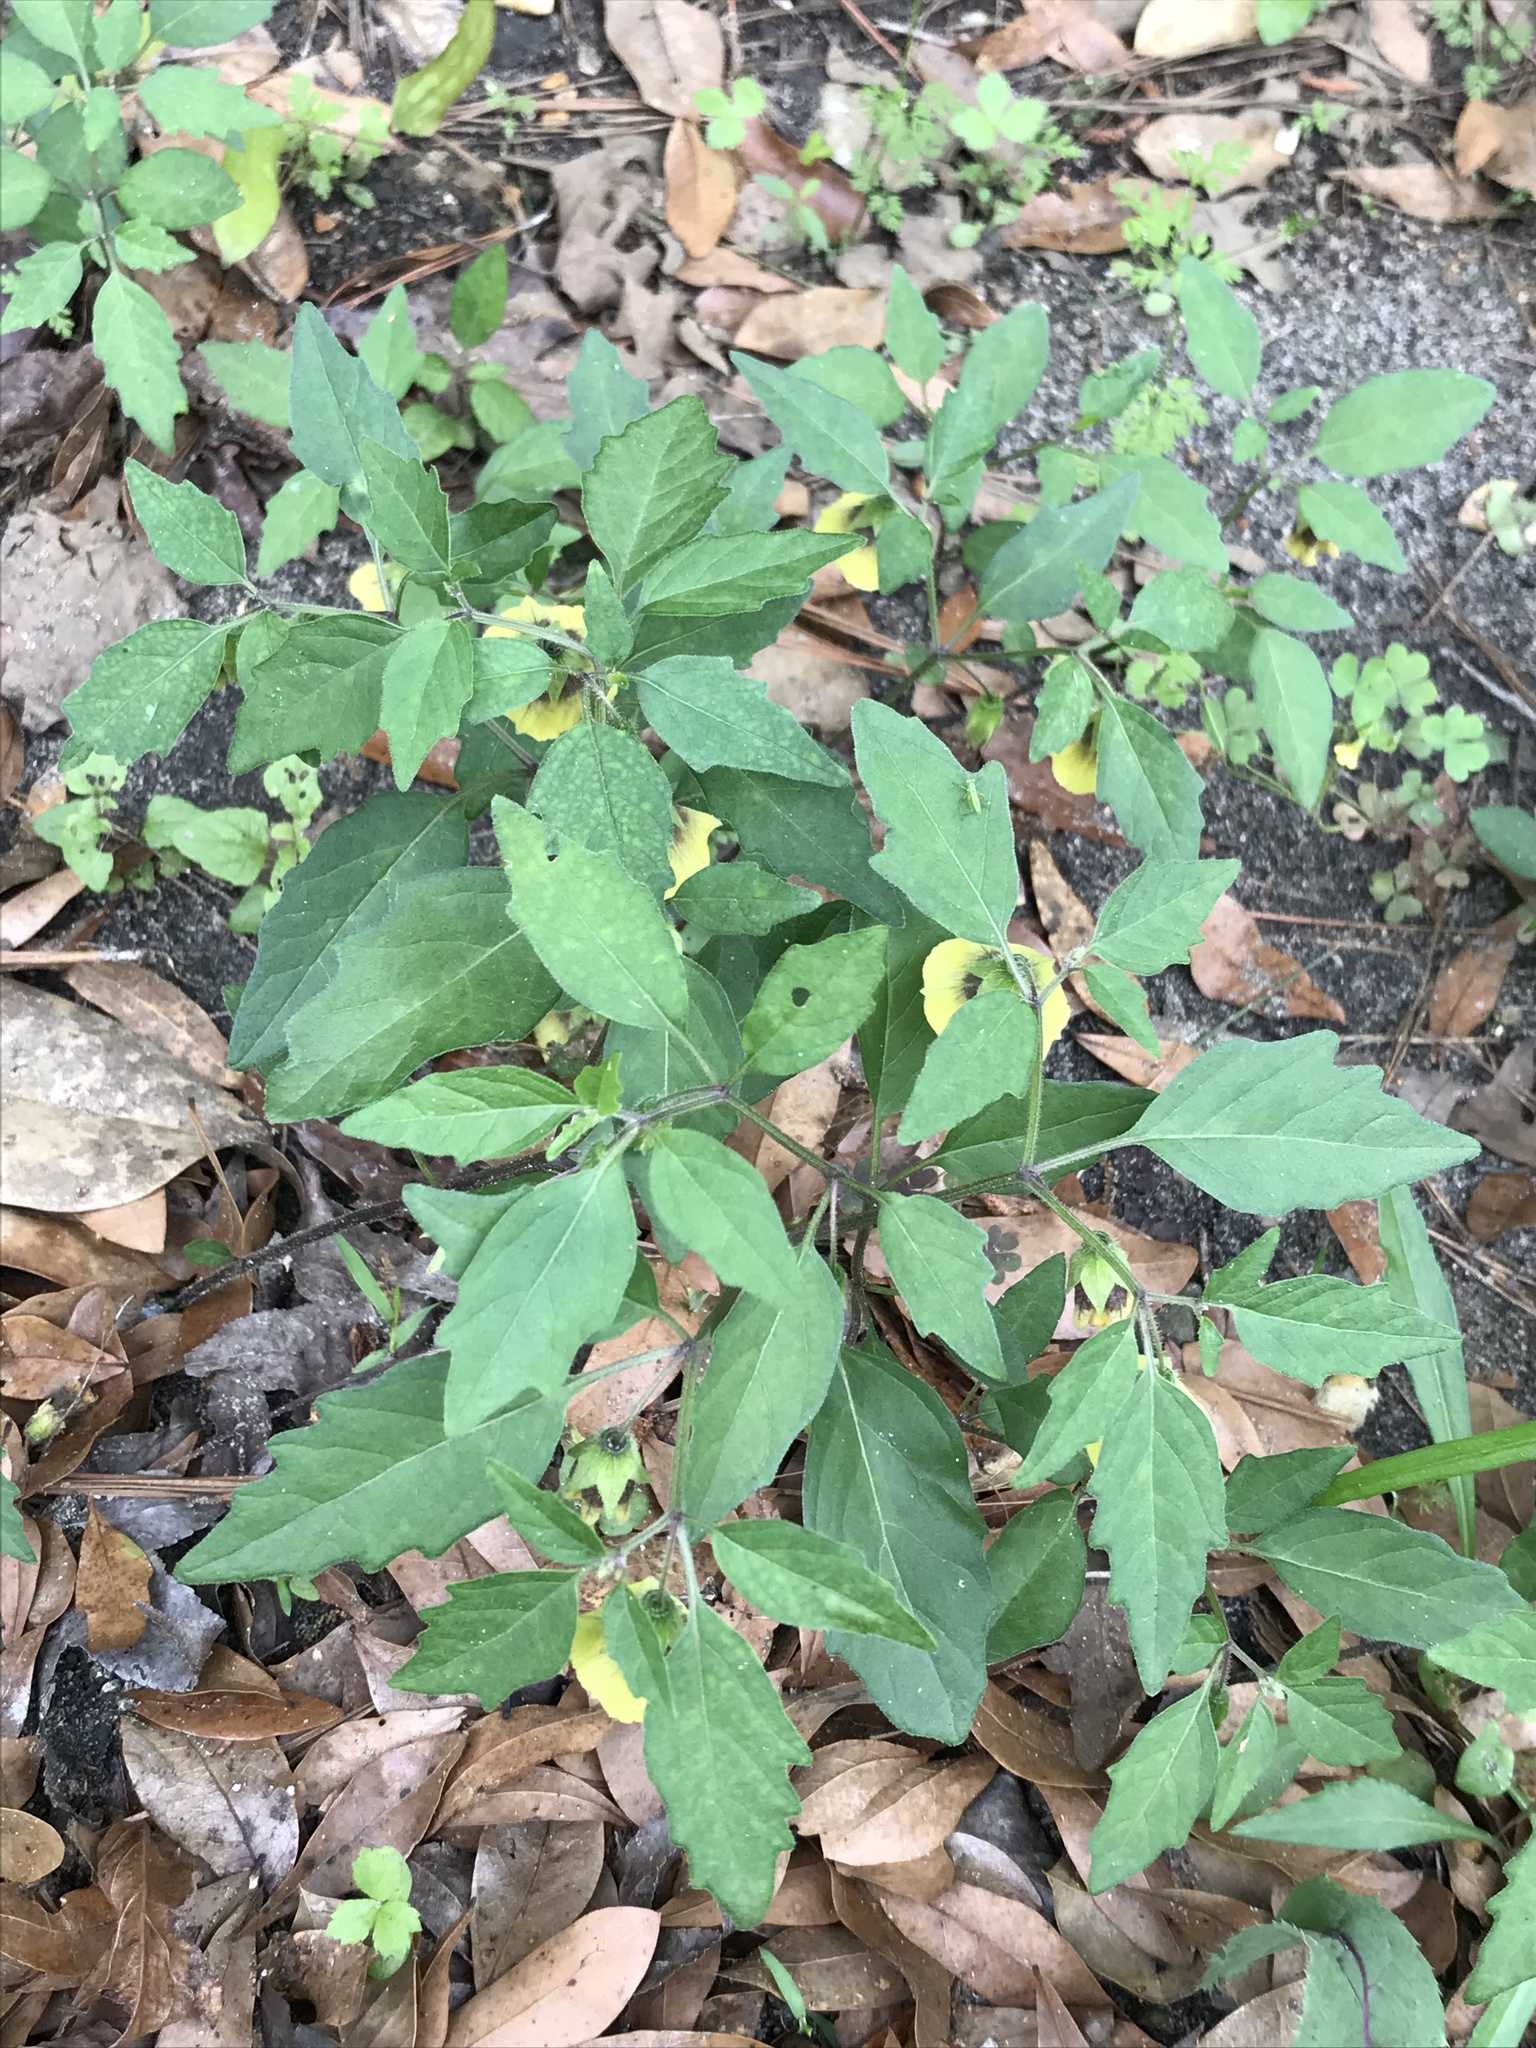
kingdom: Plantae
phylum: Tracheophyta
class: Magnoliopsida
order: Solanales
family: Solanaceae
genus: Physalis
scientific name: Physalis virginiana
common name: Virginia ground-cherry
